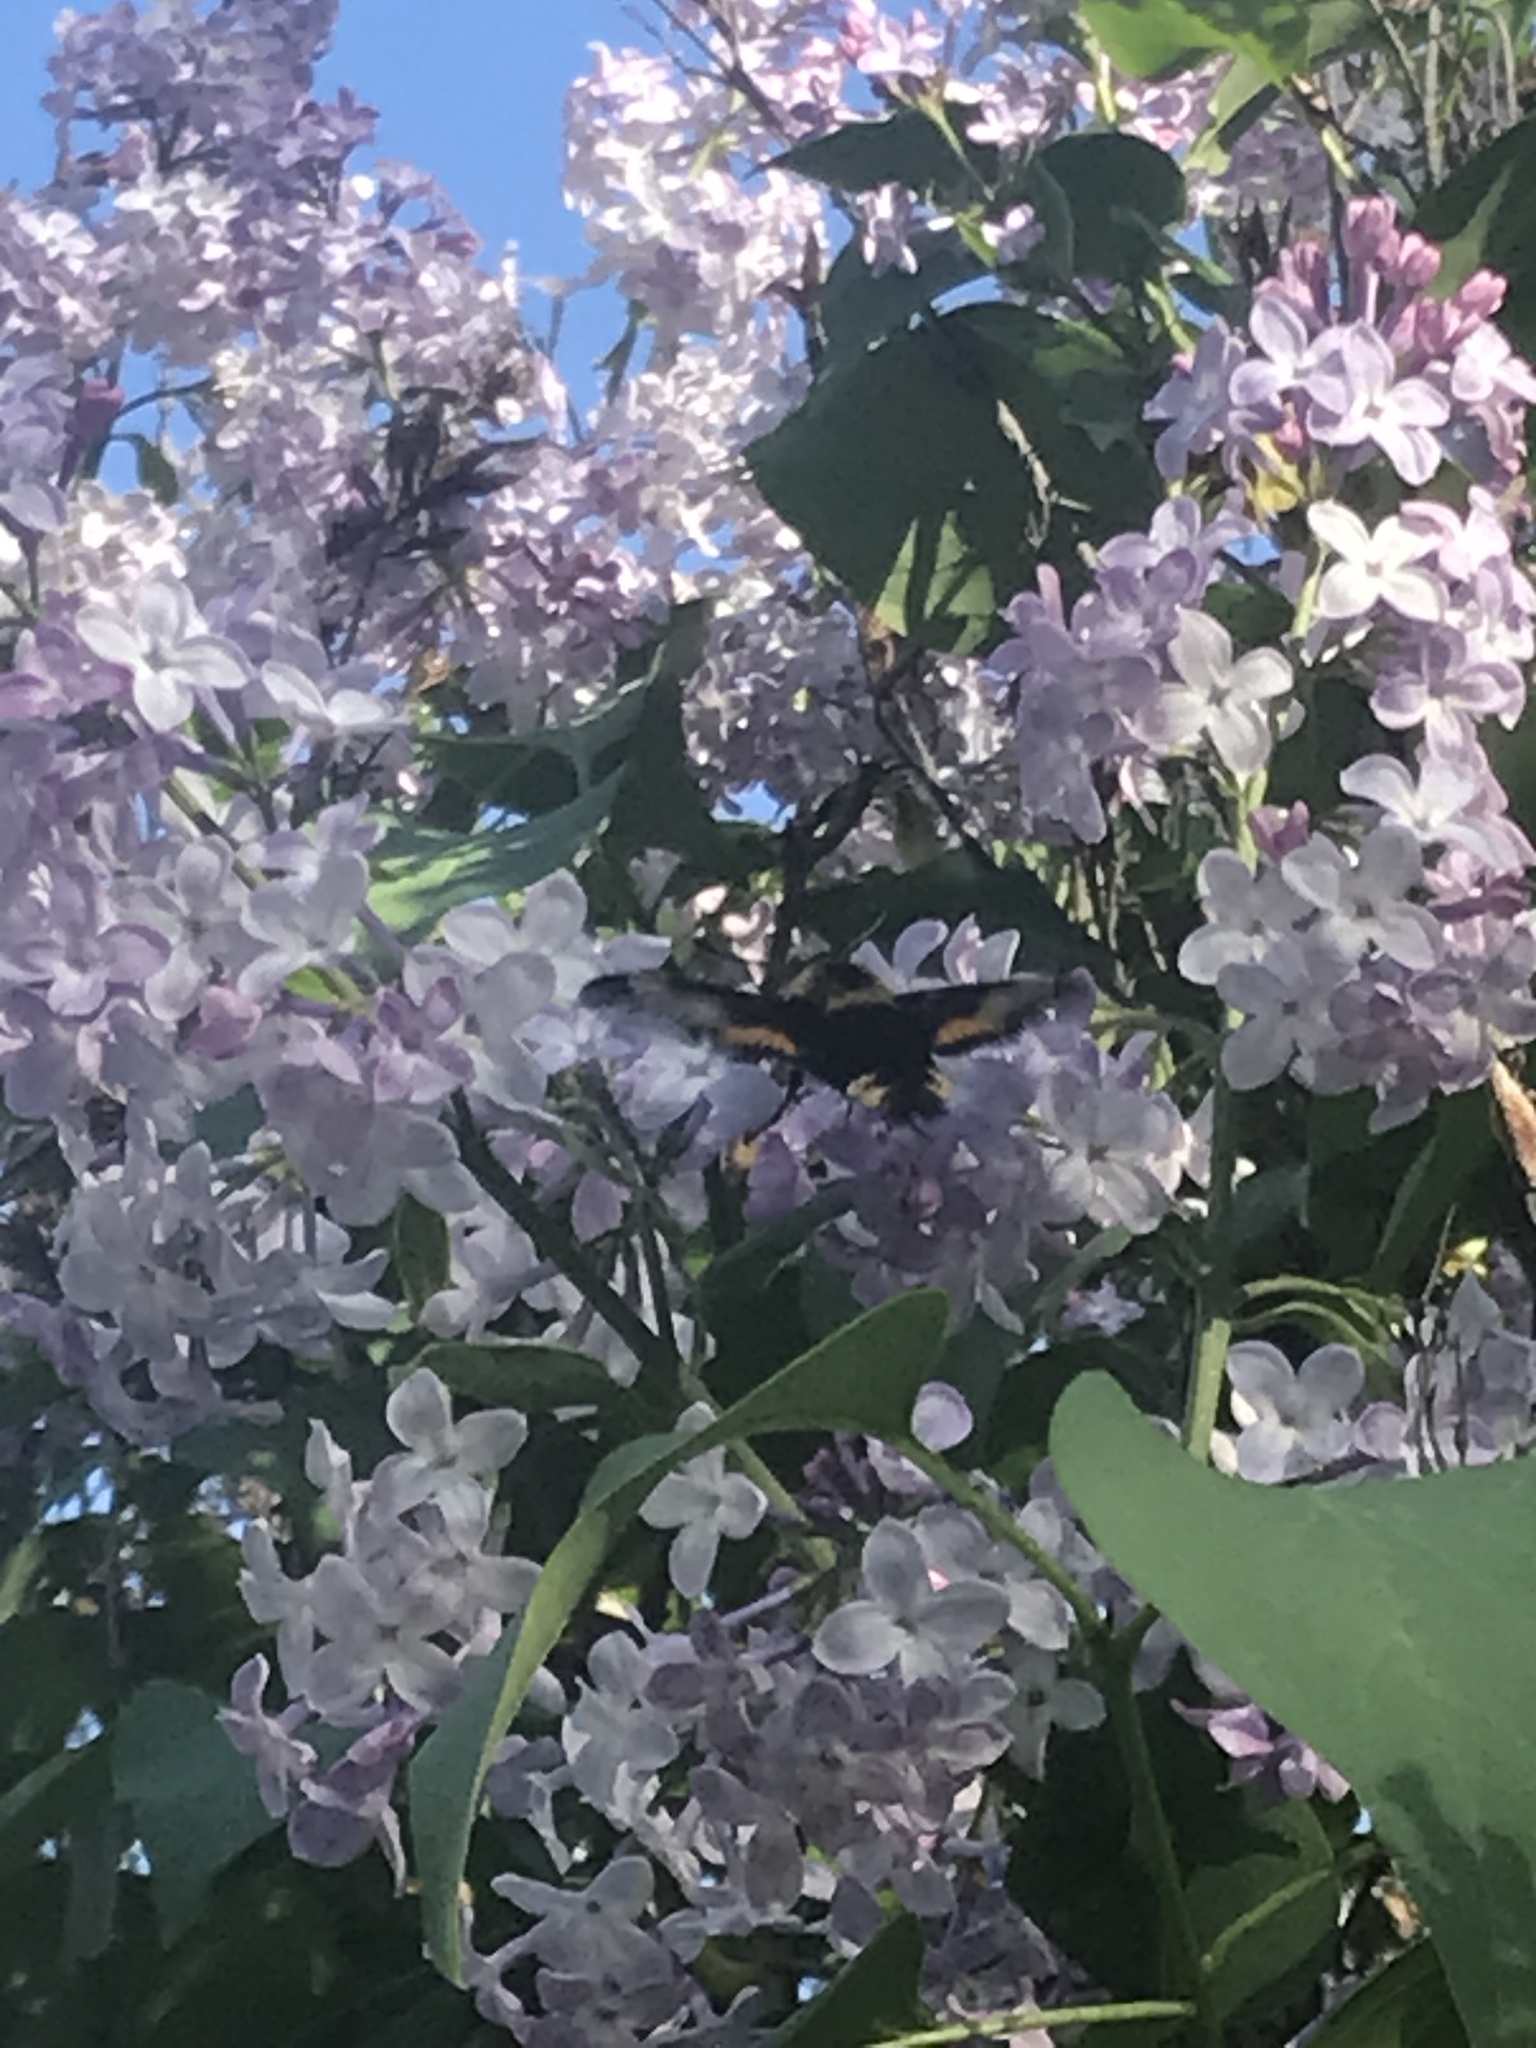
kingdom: Animalia
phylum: Arthropoda
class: Insecta
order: Lepidoptera
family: Sphingidae
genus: Proserpinus
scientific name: Proserpinus flavofasciata
